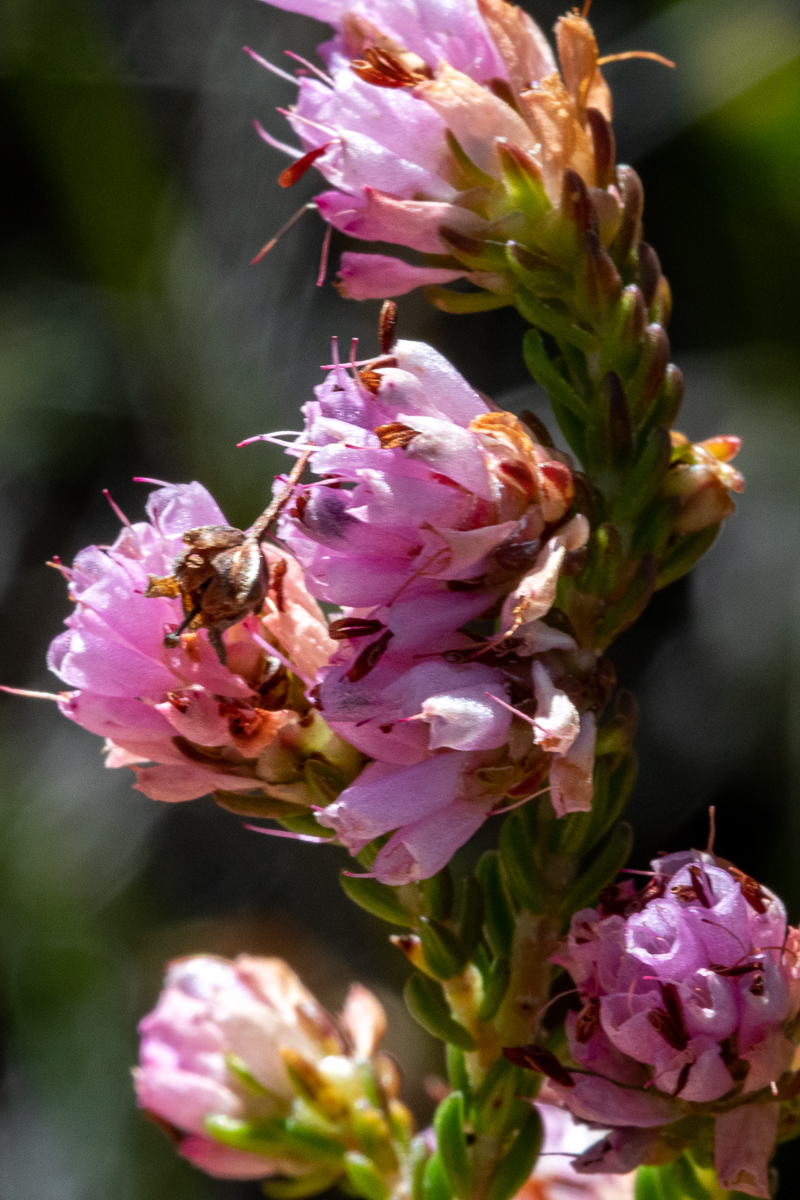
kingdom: Plantae
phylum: Tracheophyta
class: Magnoliopsida
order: Ericales
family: Ericaceae
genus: Erica
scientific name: Erica labialis
